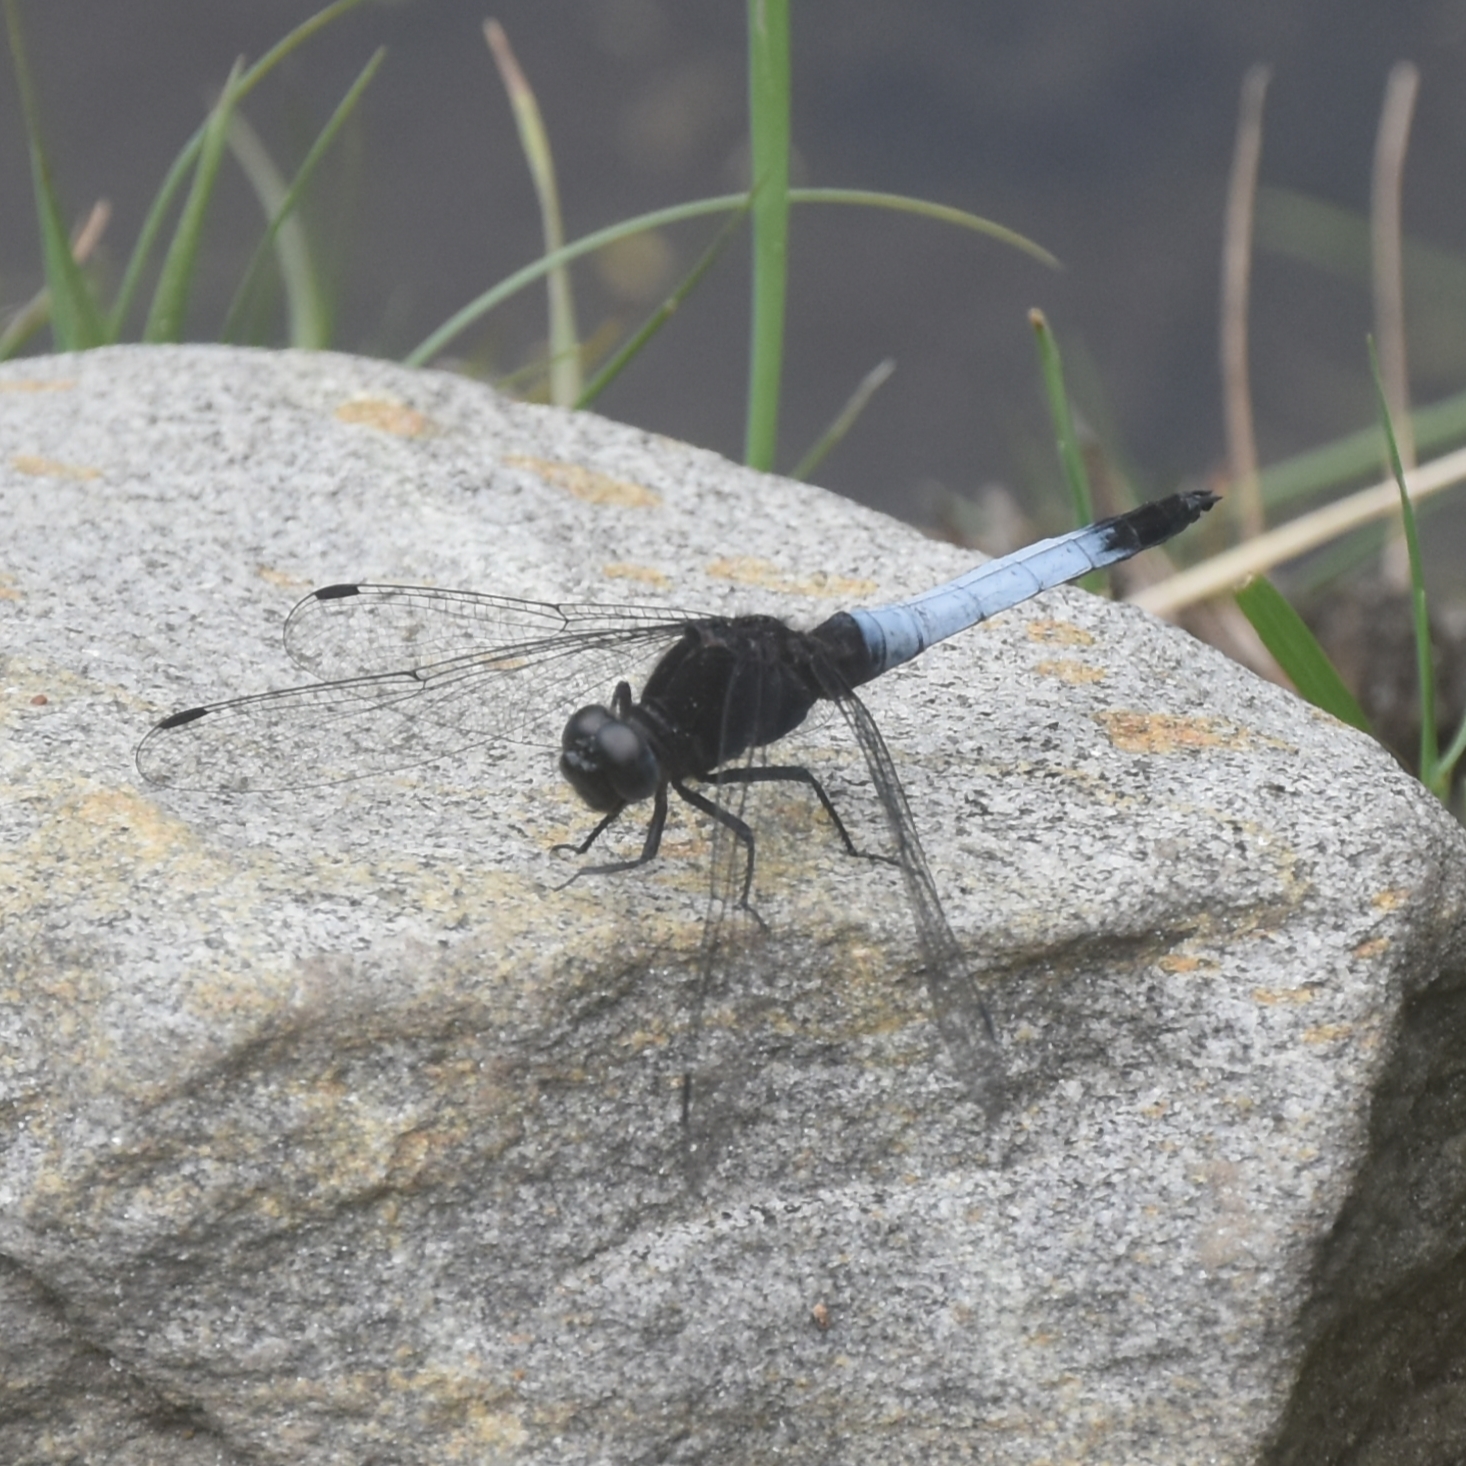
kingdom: Animalia
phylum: Arthropoda
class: Insecta
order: Odonata
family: Libellulidae
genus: Orthetrum
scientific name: Orthetrum triangulare
